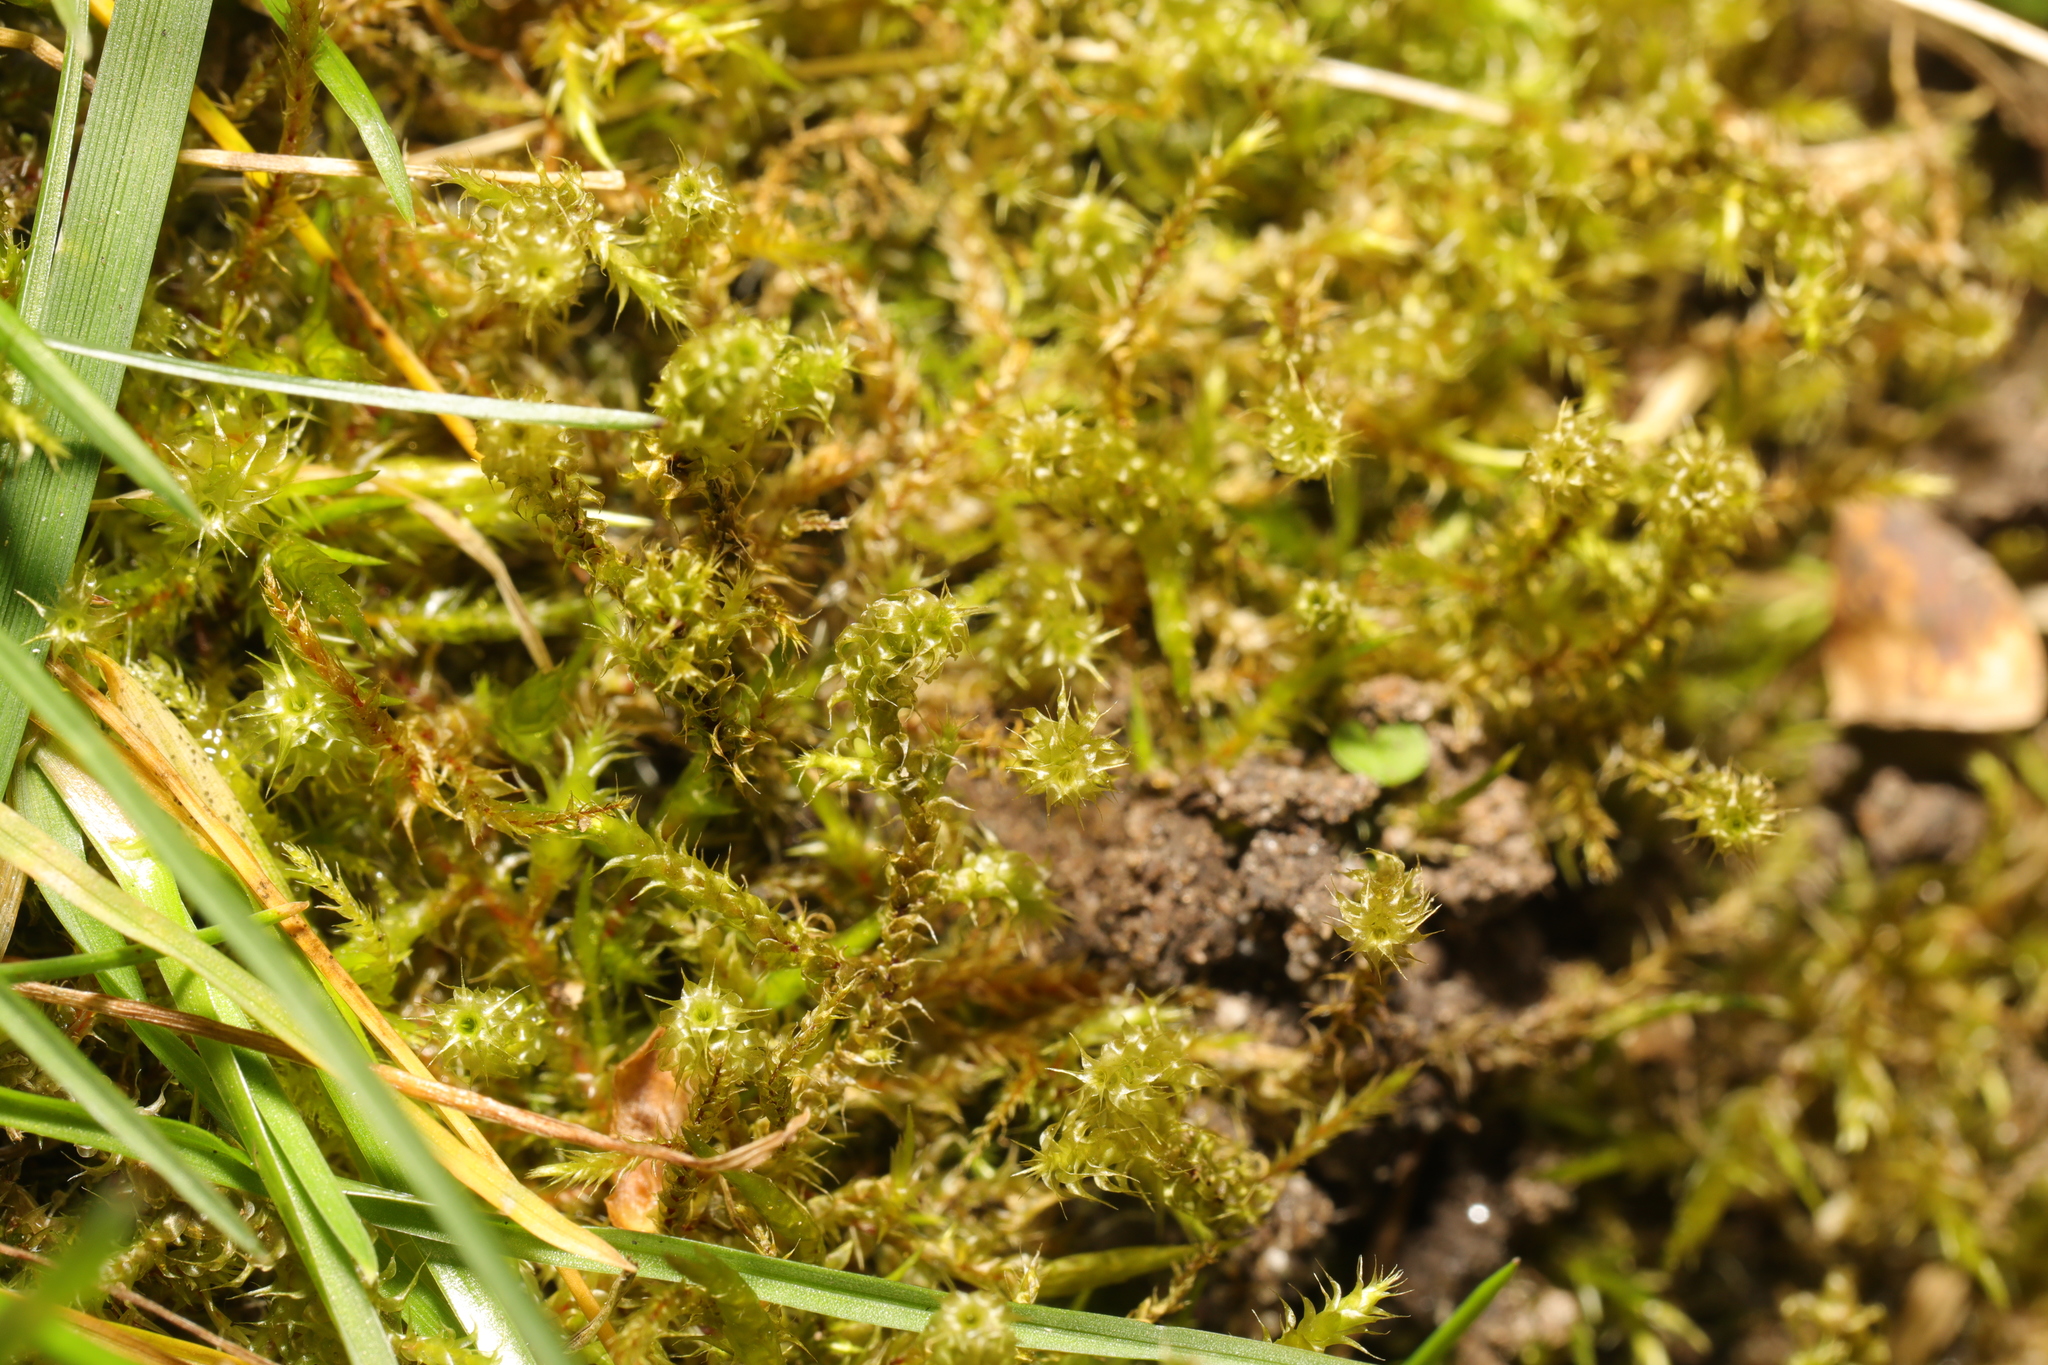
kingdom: Plantae
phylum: Bryophyta
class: Bryopsida
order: Hypnales
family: Hylocomiaceae
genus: Rhytidiadelphus
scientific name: Rhytidiadelphus squarrosus
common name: Springy turf-moss
